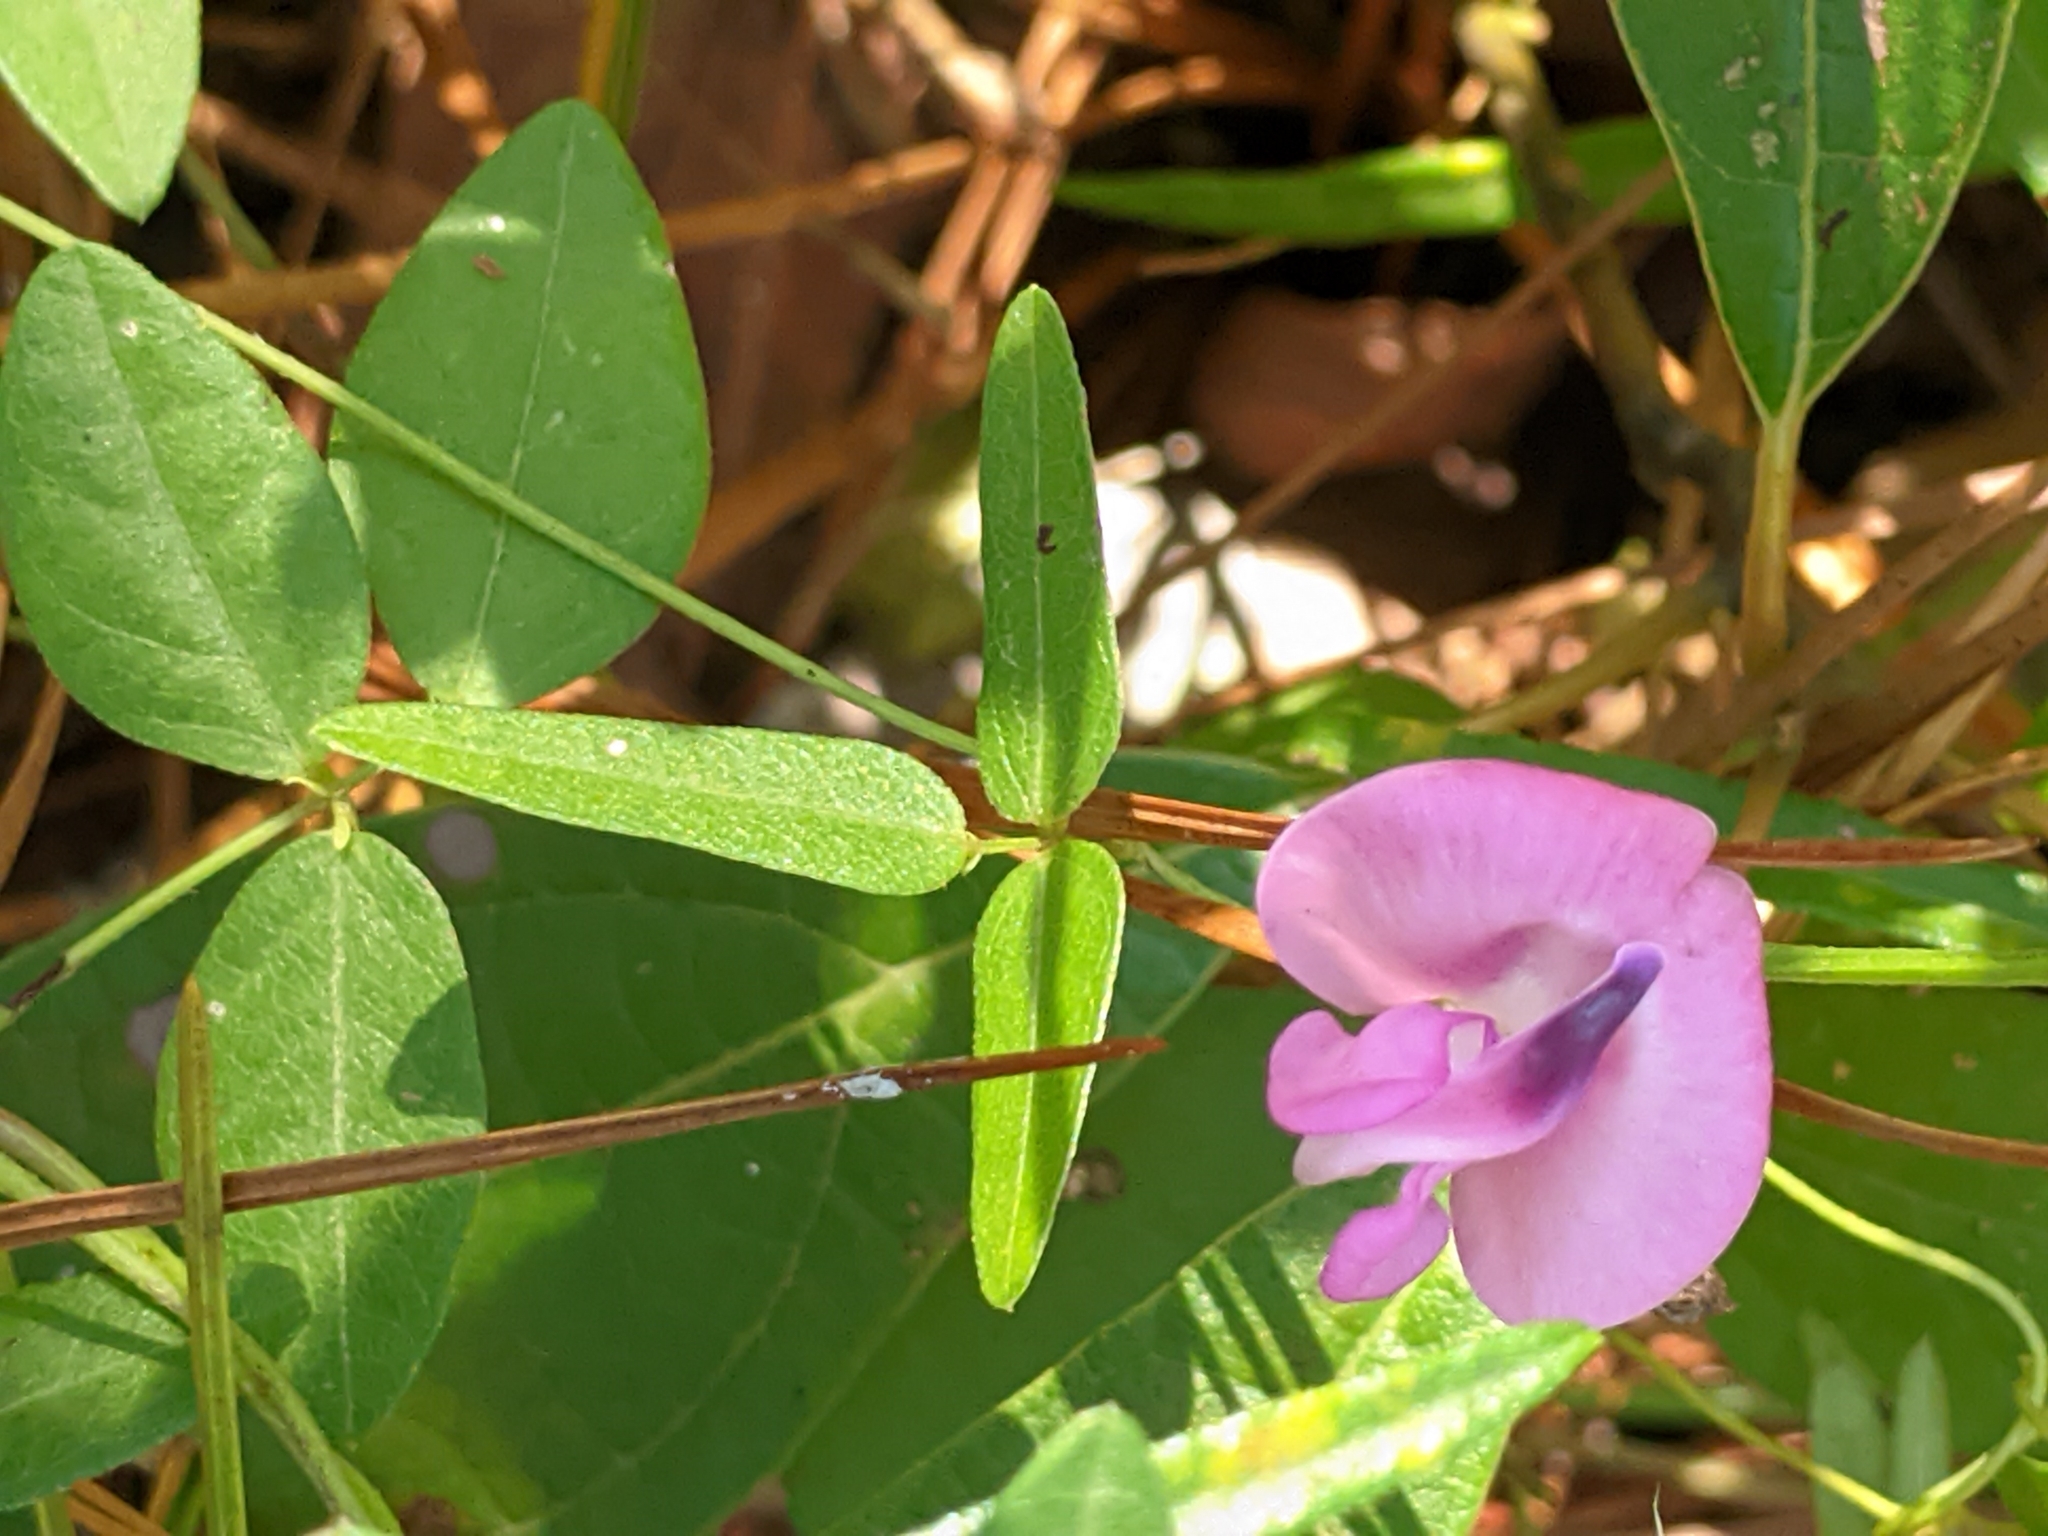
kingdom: Plantae
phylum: Tracheophyta
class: Magnoliopsida
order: Fabales
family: Fabaceae
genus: Strophostyles
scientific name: Strophostyles umbellata
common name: Perennial wild bean
